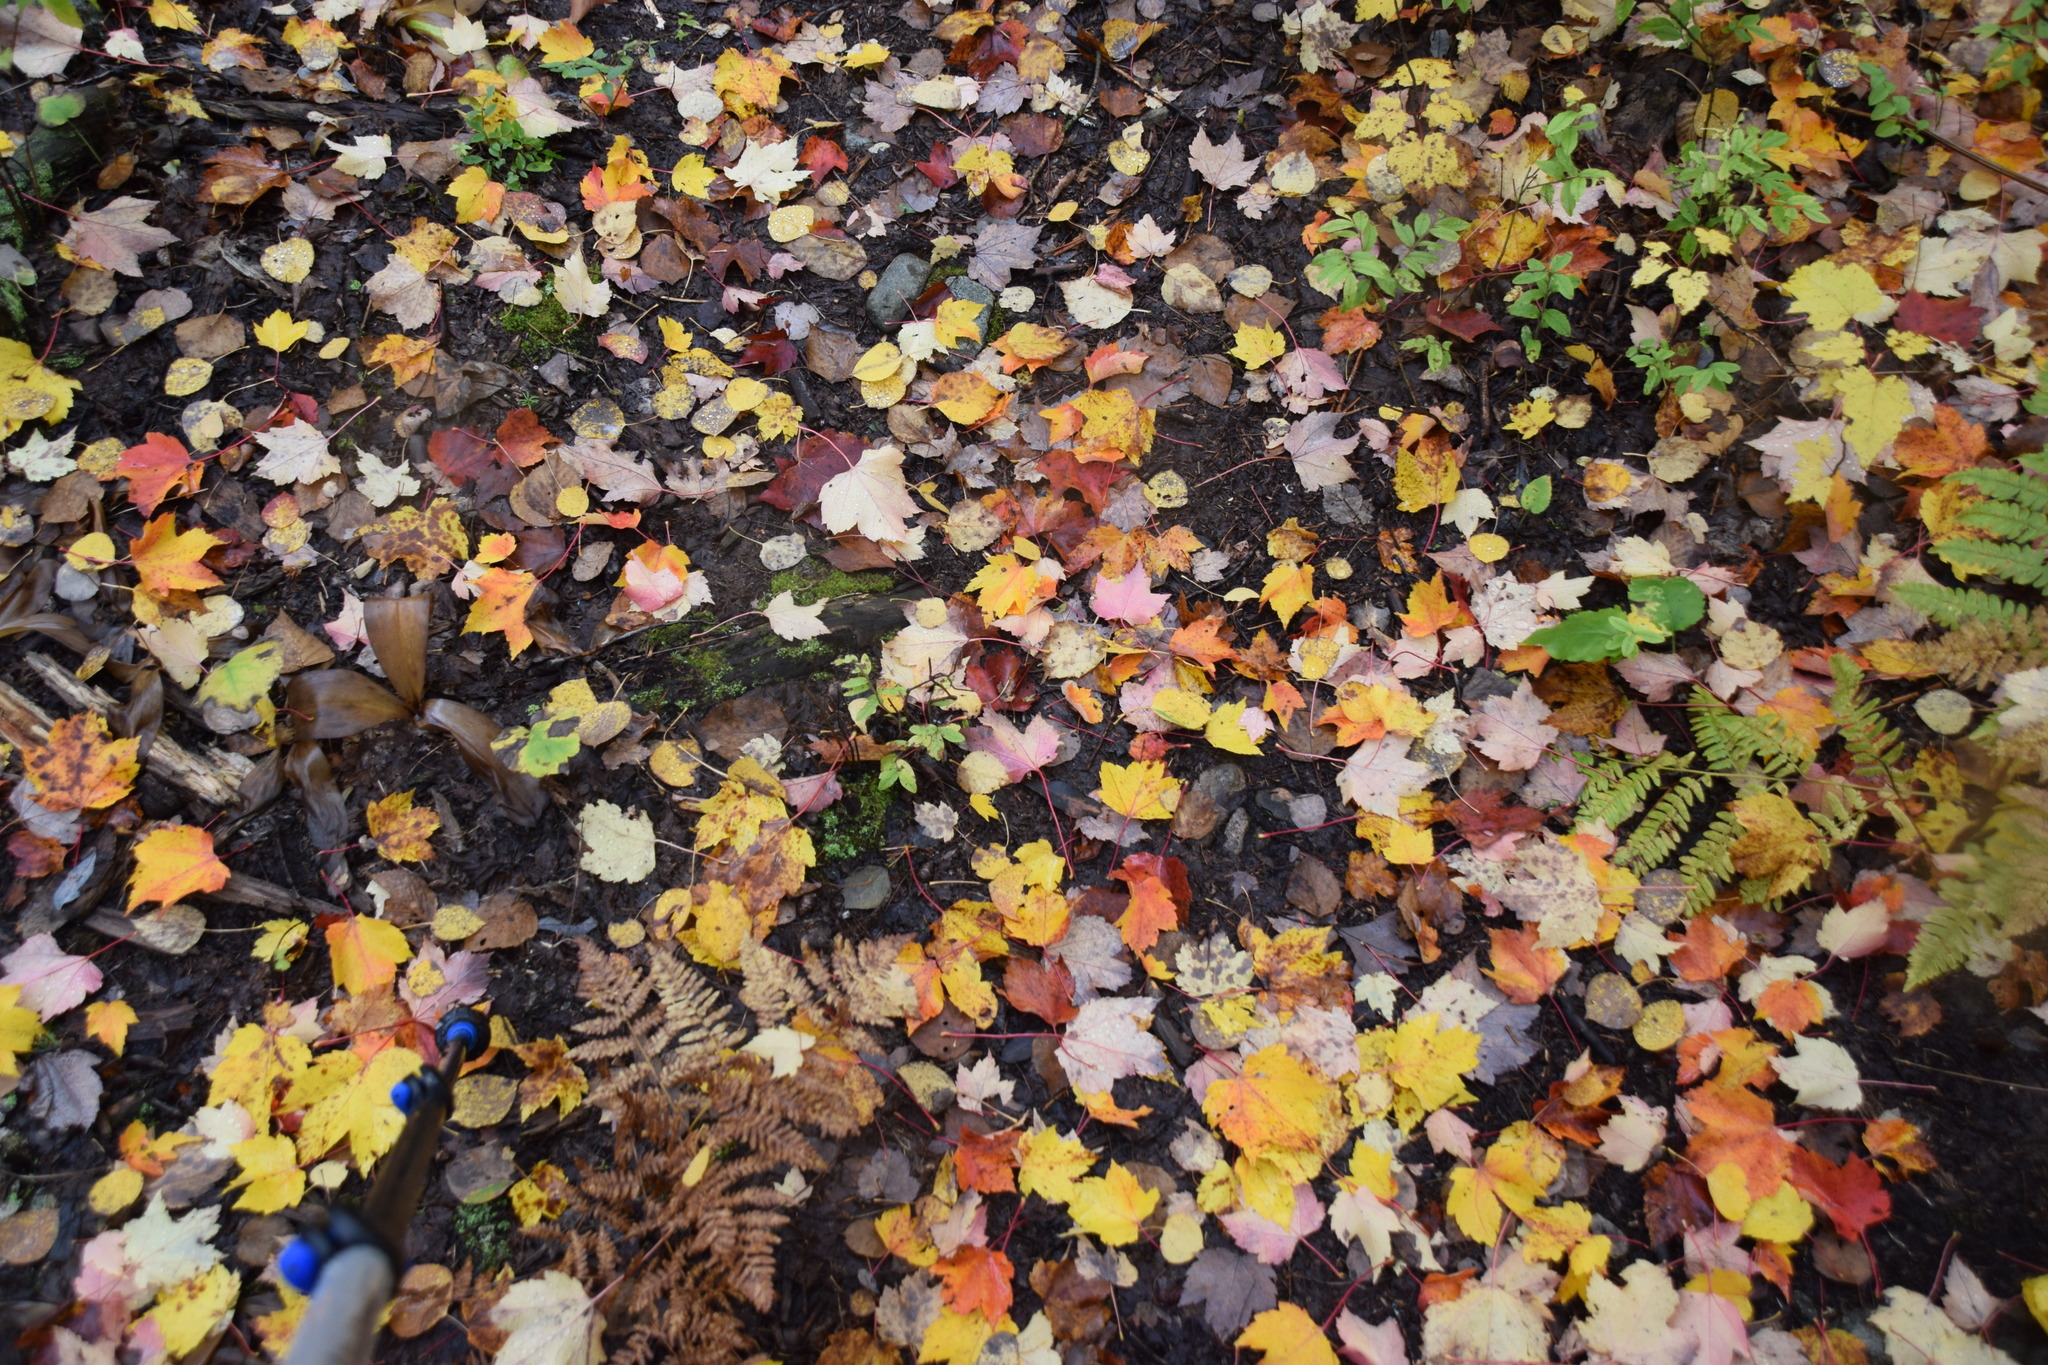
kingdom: Plantae
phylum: Tracheophyta
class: Magnoliopsida
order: Sapindales
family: Sapindaceae
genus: Acer
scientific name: Acer rubrum
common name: Red maple
